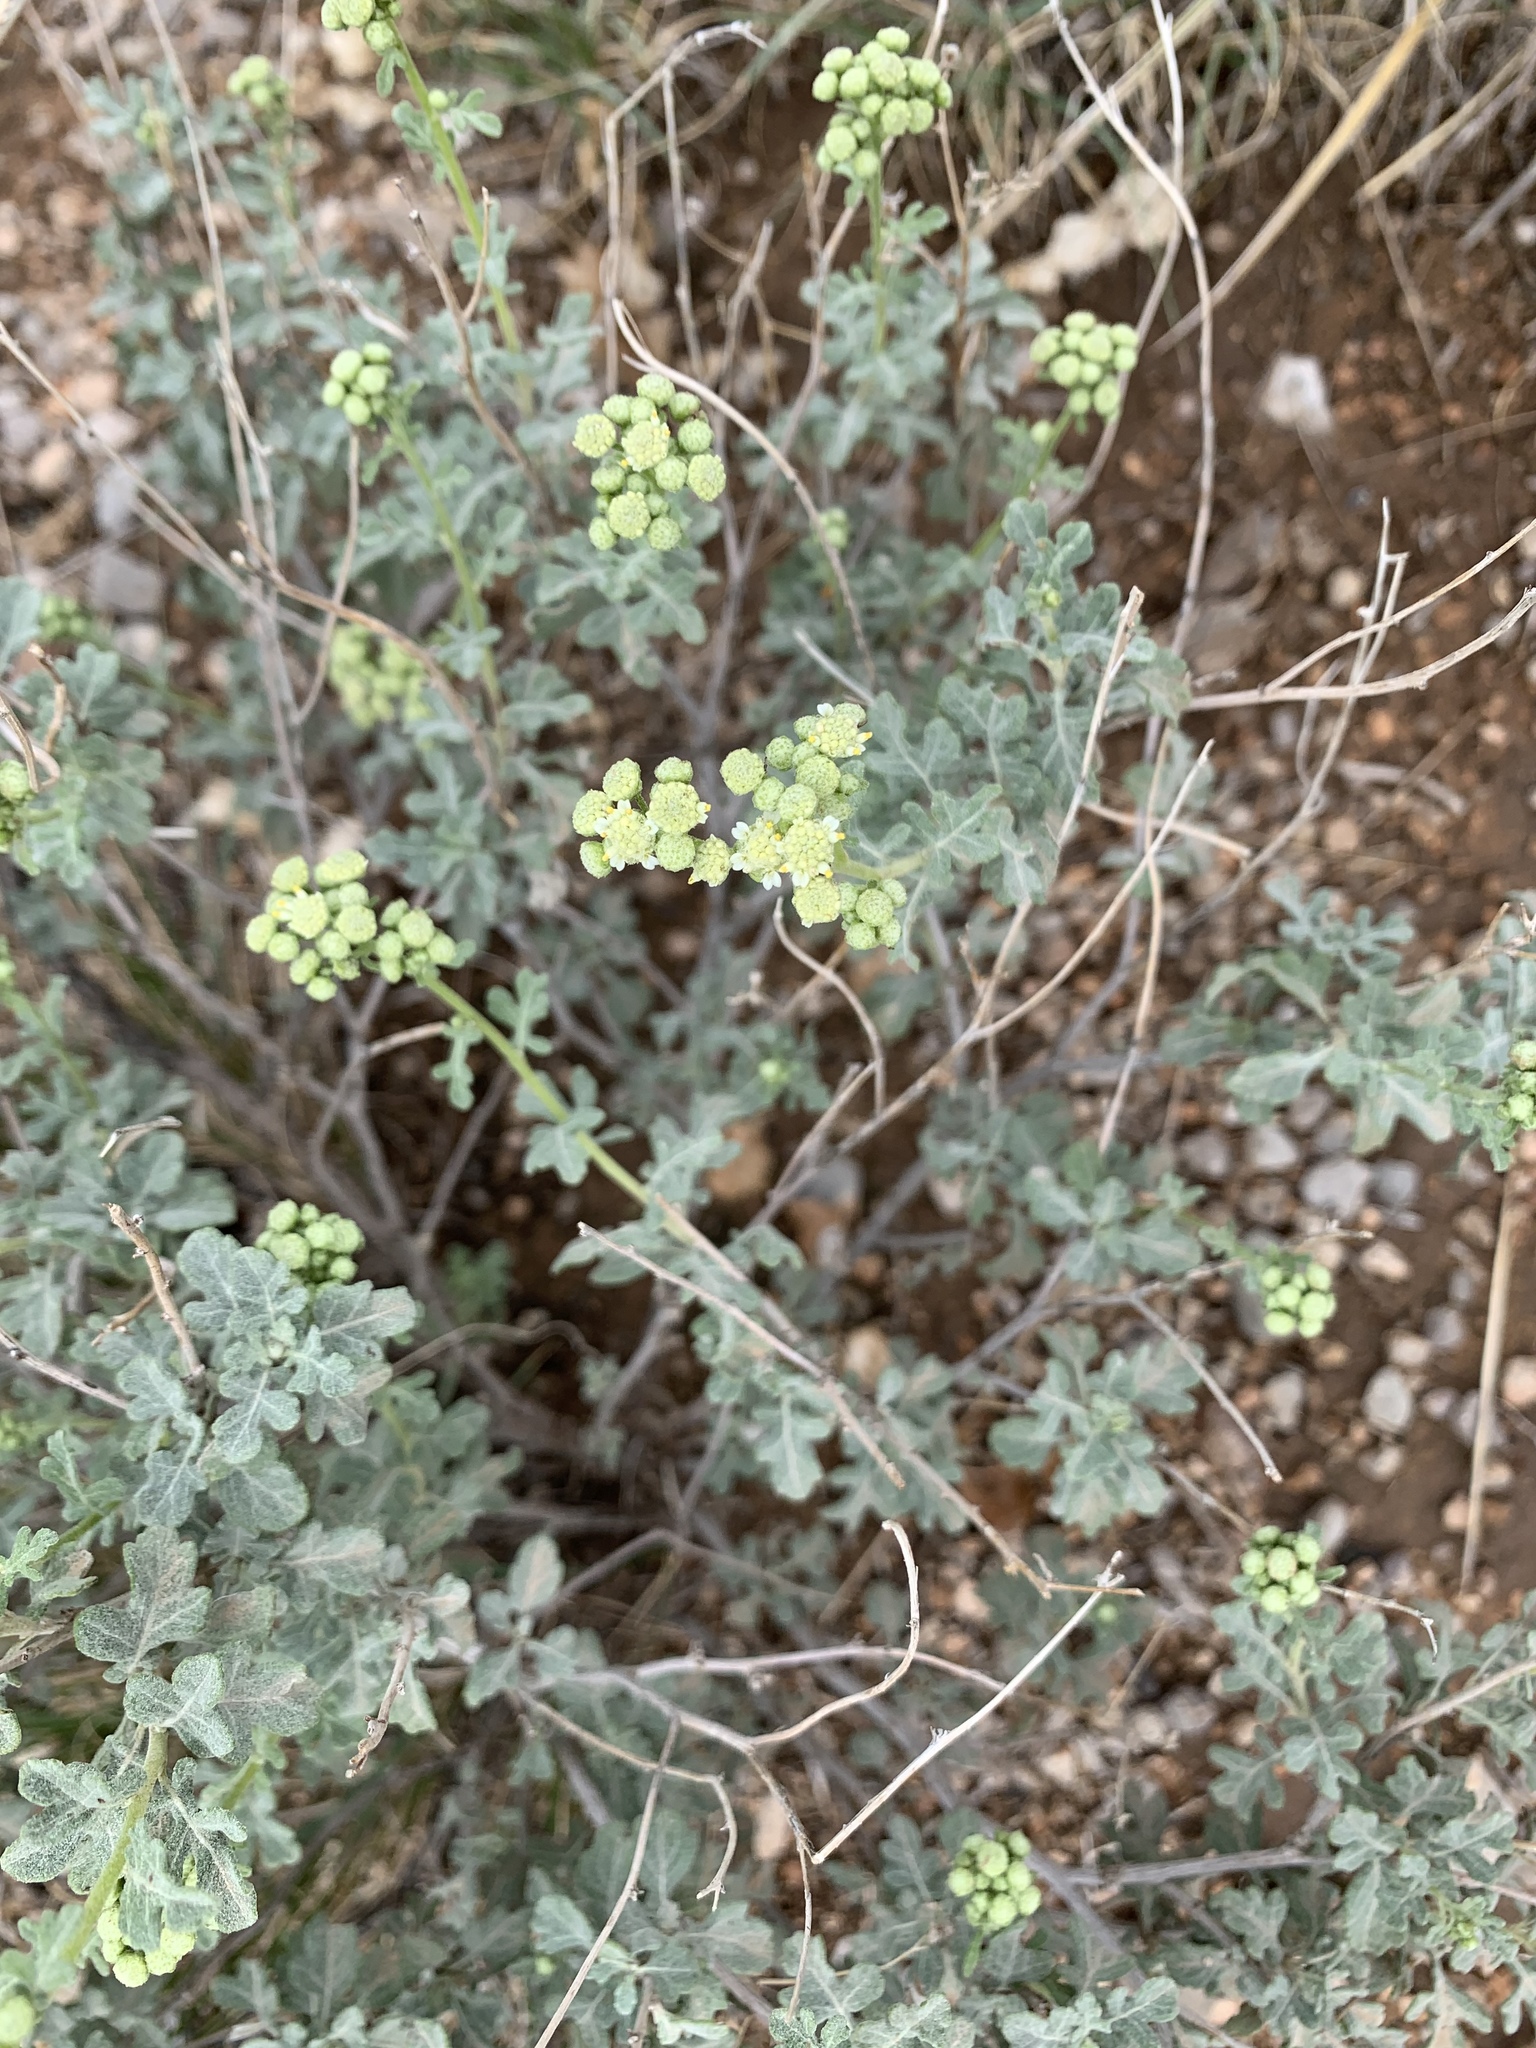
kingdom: Plantae
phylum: Tracheophyta
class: Magnoliopsida
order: Asterales
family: Asteraceae
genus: Parthenium
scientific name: Parthenium incanum
